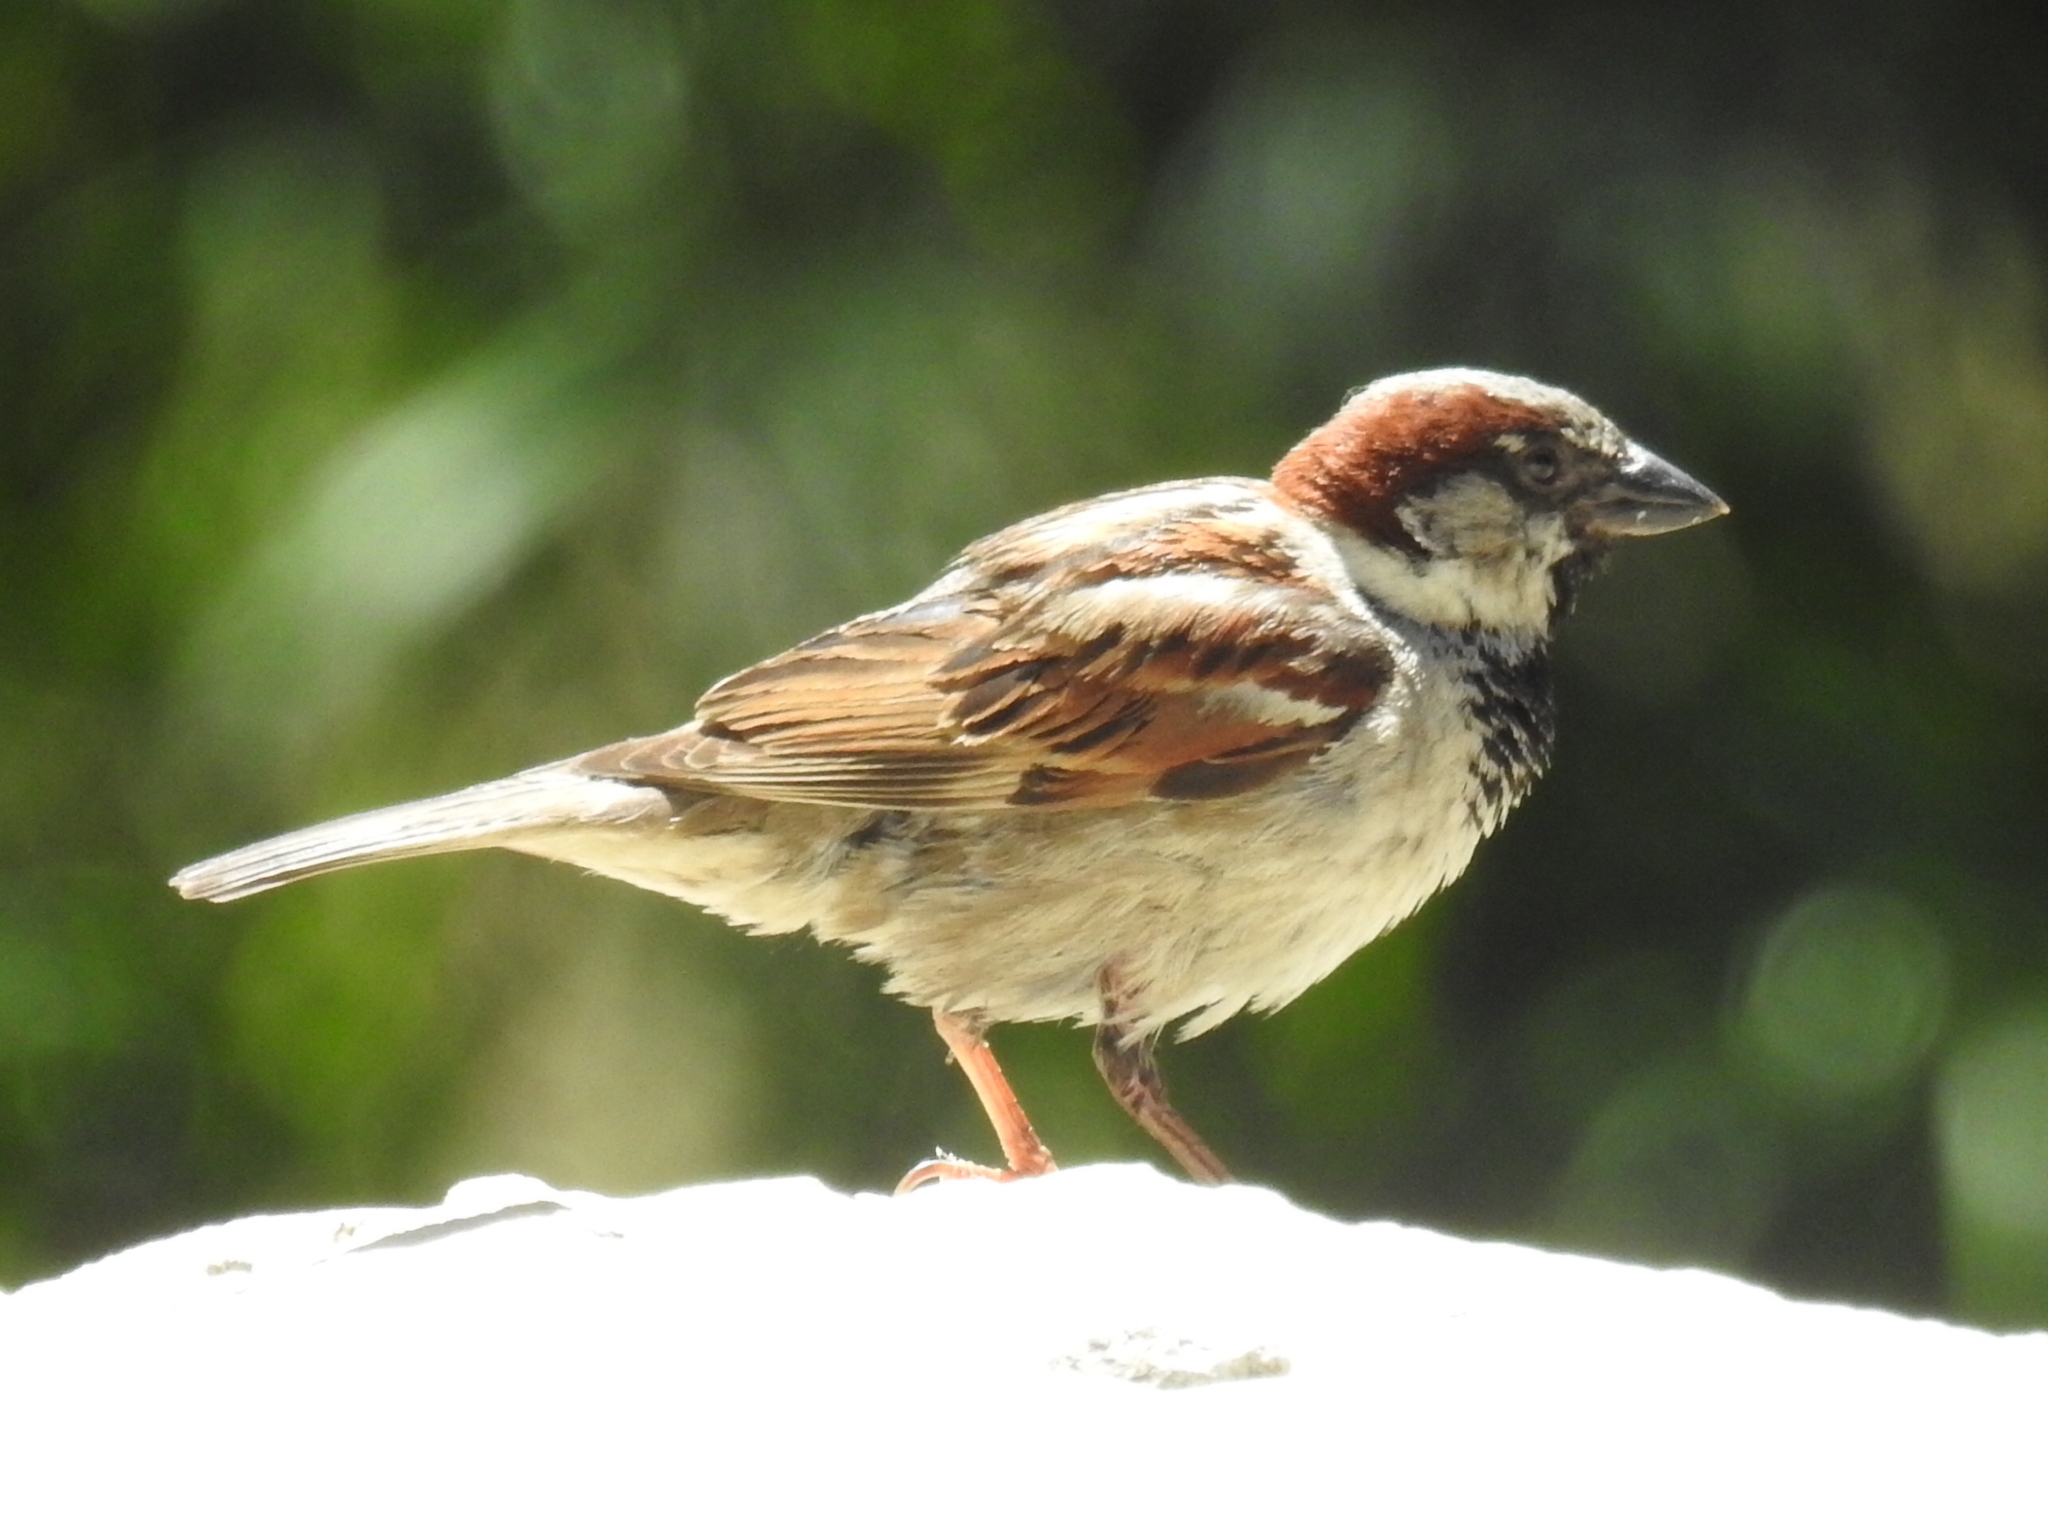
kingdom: Animalia
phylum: Chordata
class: Aves
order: Passeriformes
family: Passeridae
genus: Passer
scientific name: Passer domesticus
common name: House sparrow
